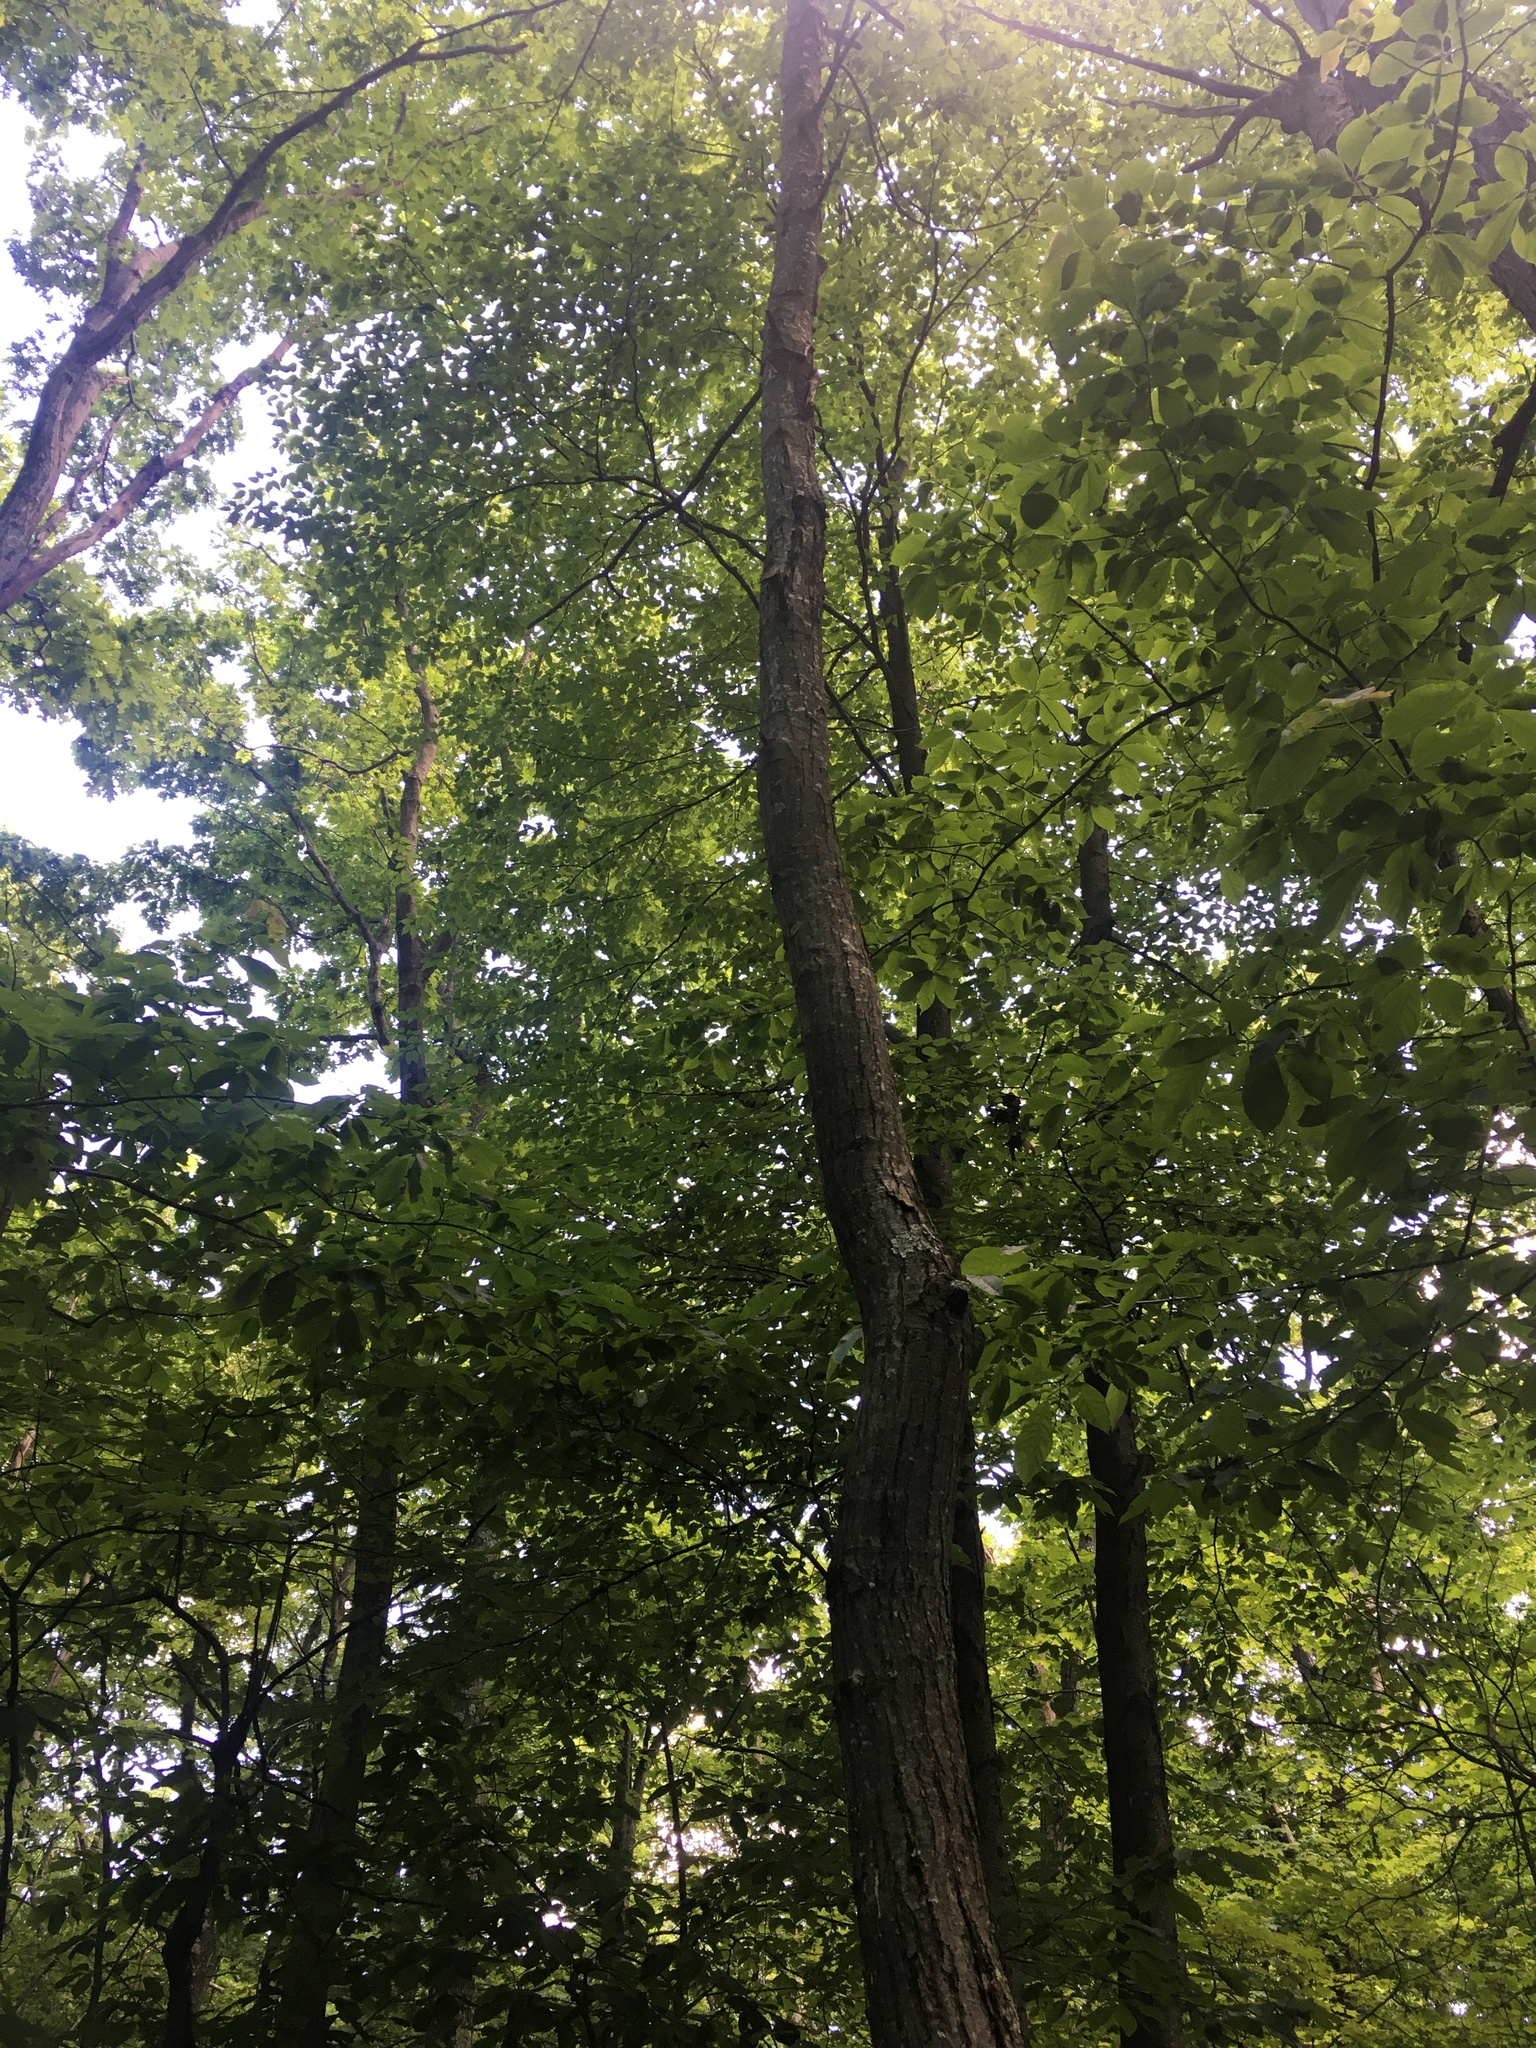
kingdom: Plantae
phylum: Tracheophyta
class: Magnoliopsida
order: Fagales
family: Fagaceae
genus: Castanea
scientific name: Castanea dentata
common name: American chestnut
